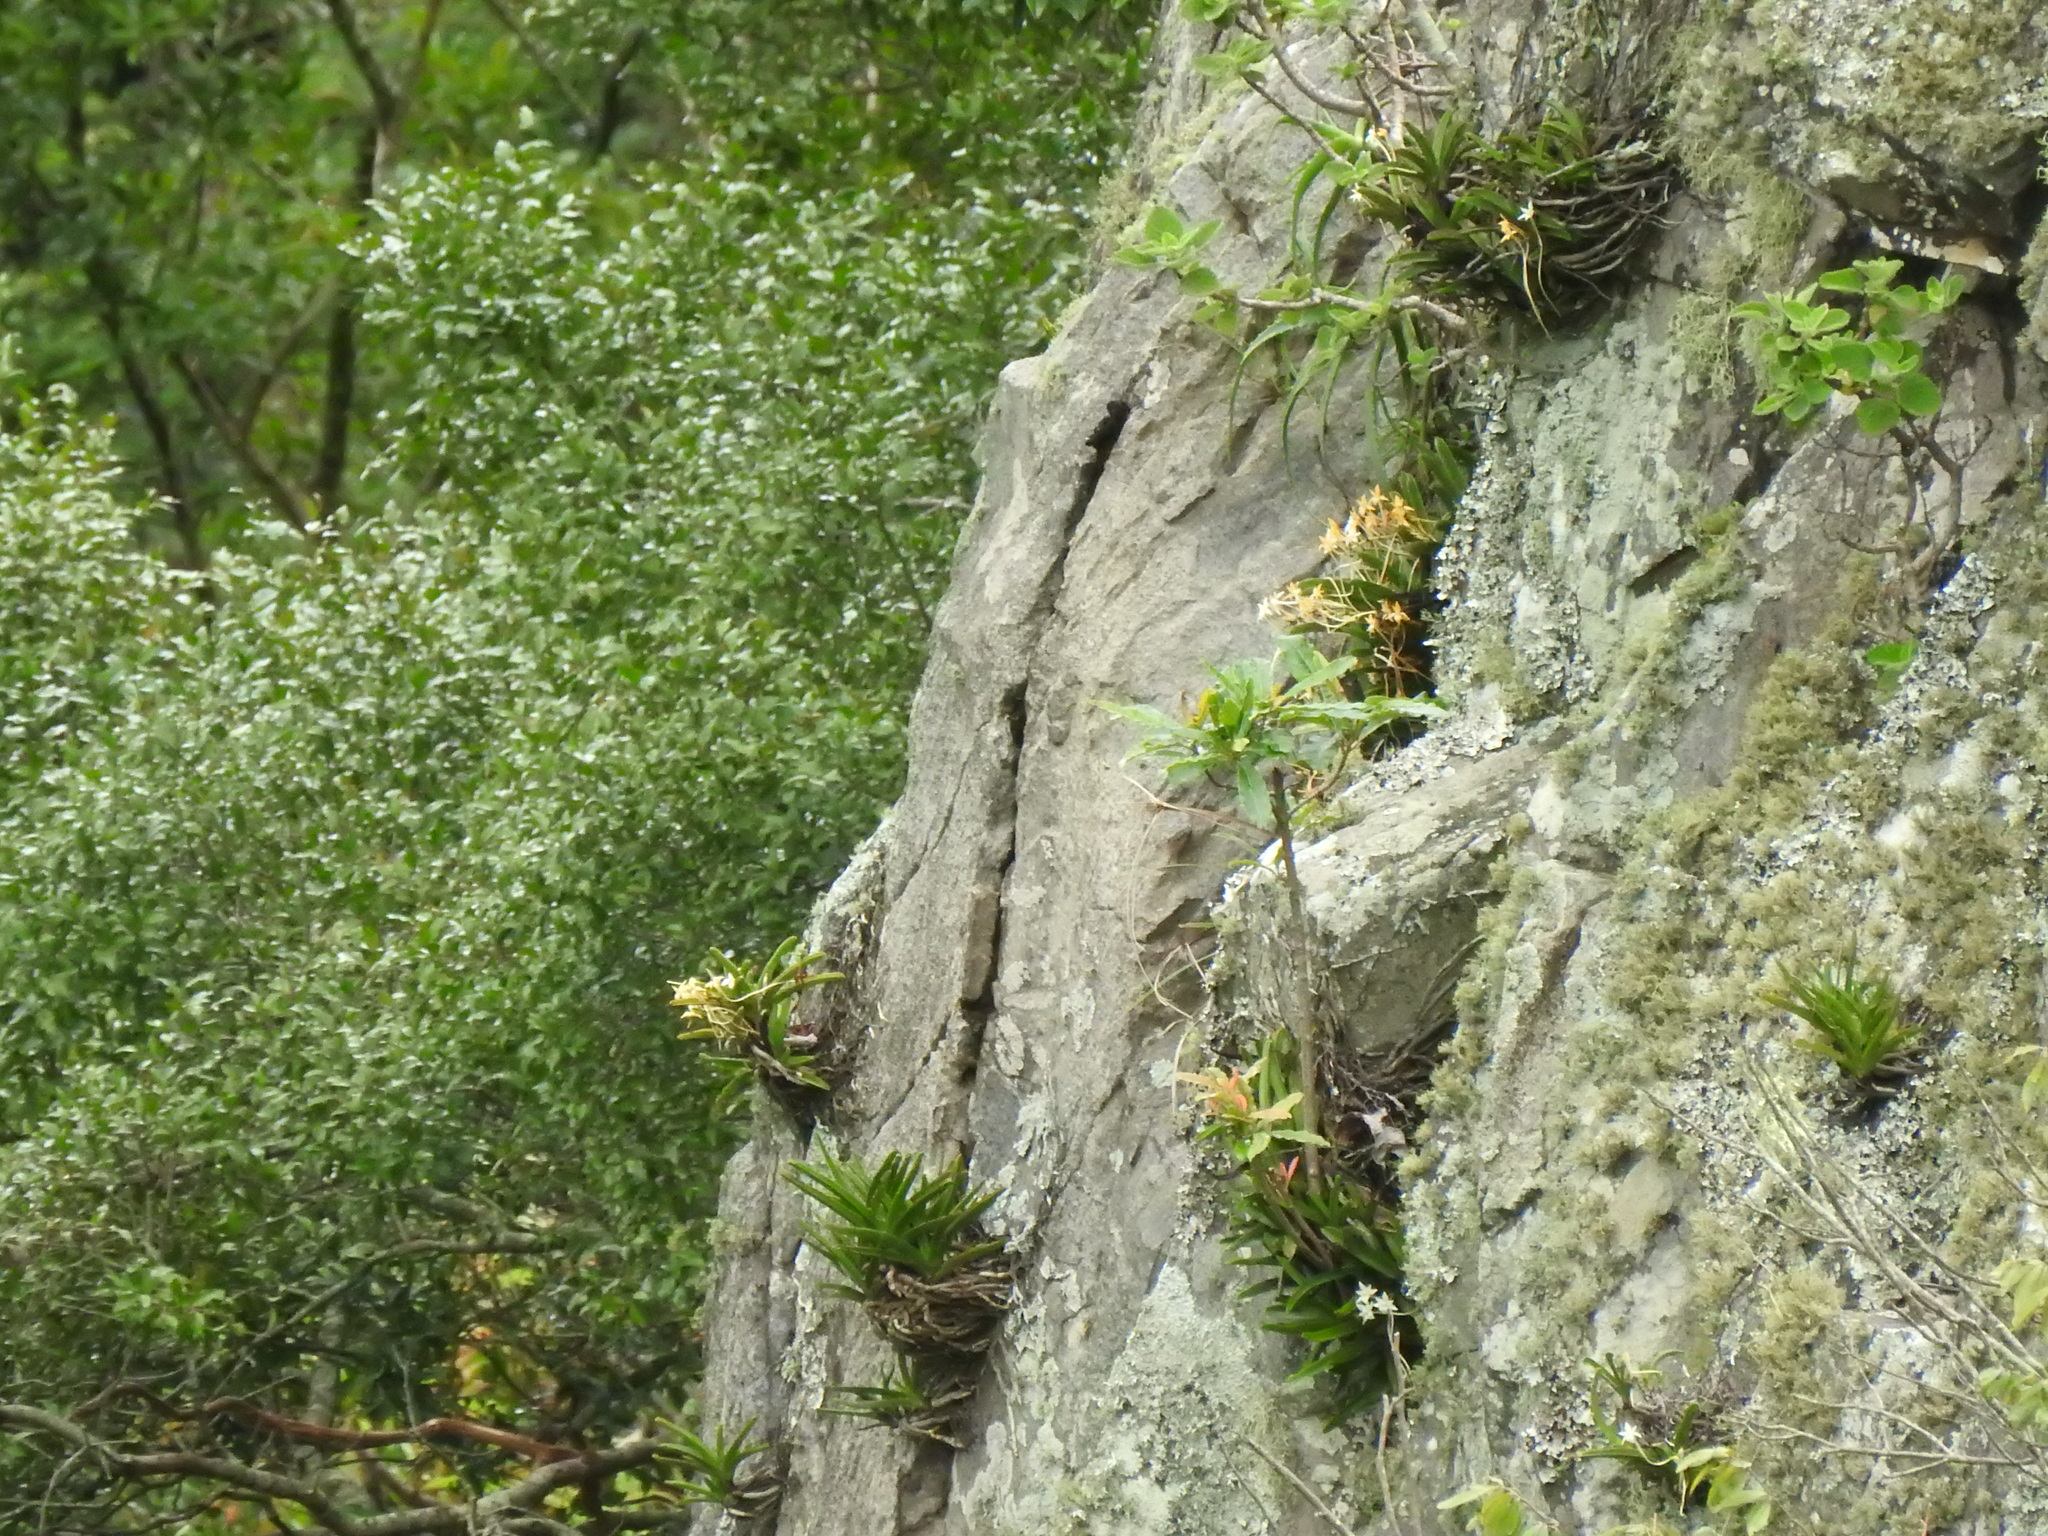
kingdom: Plantae
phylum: Tracheophyta
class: Liliopsida
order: Asparagales
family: Orchidaceae
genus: Rangaeris
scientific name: Rangaeris muscicola
